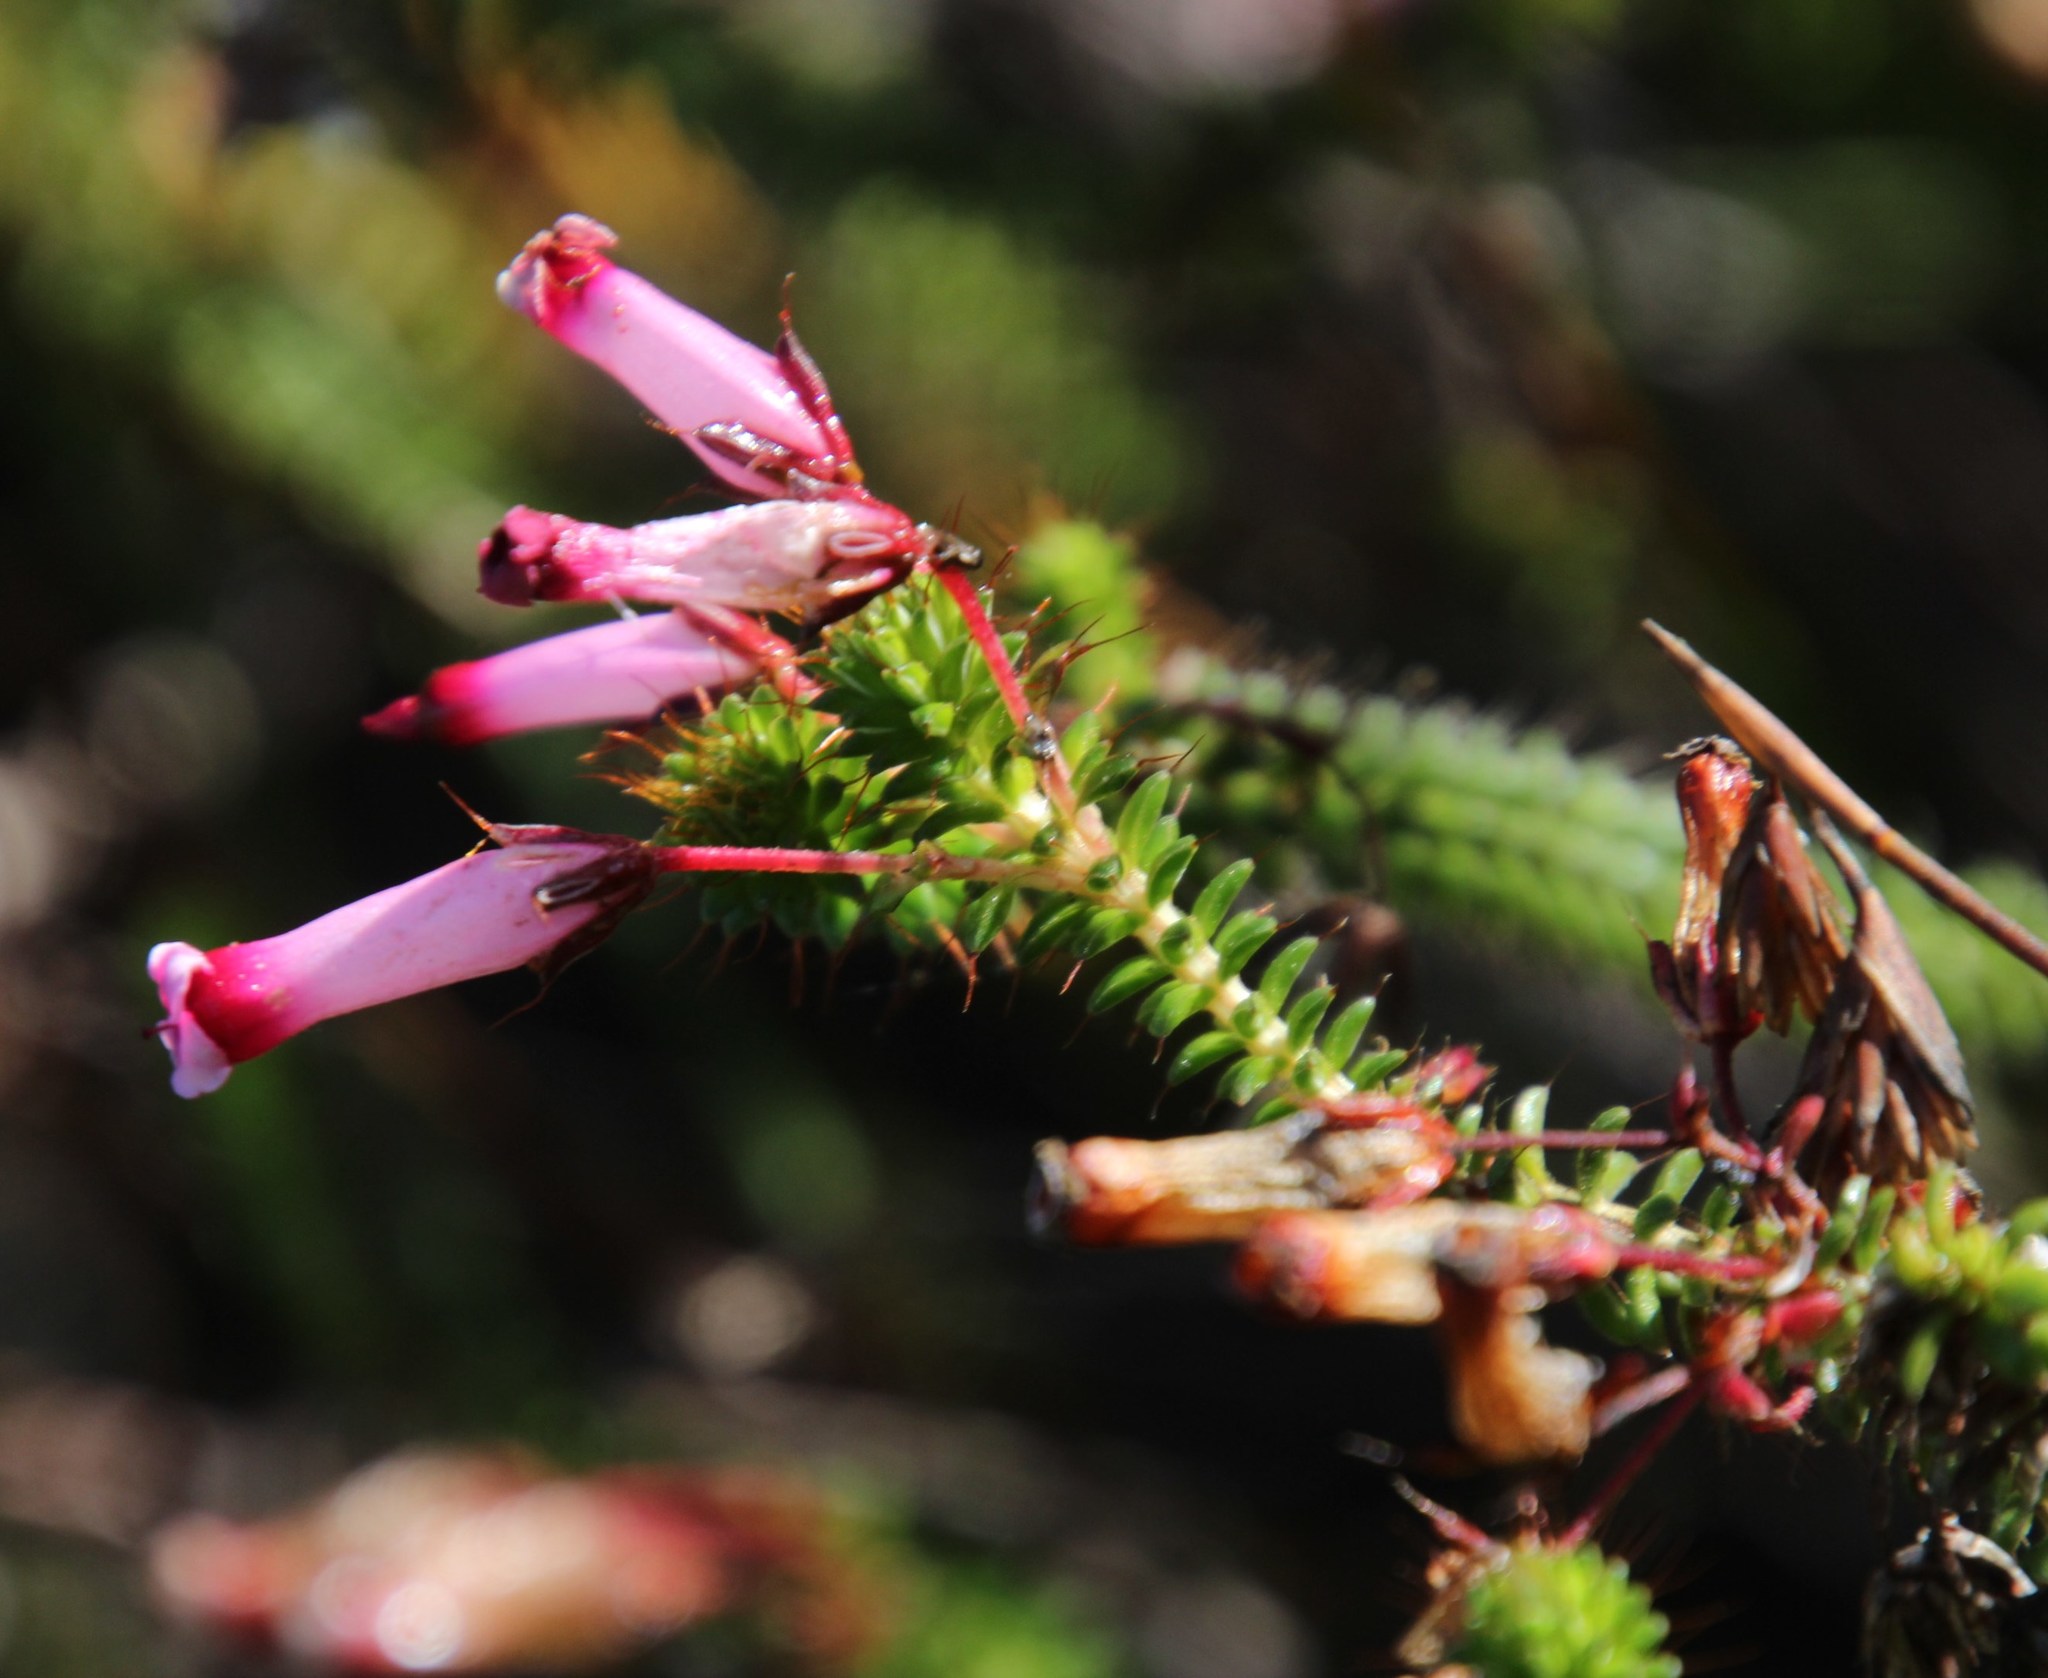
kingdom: Plantae
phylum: Tracheophyta
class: Magnoliopsida
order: Ericales
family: Ericaceae
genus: Erica
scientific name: Erica retorta
